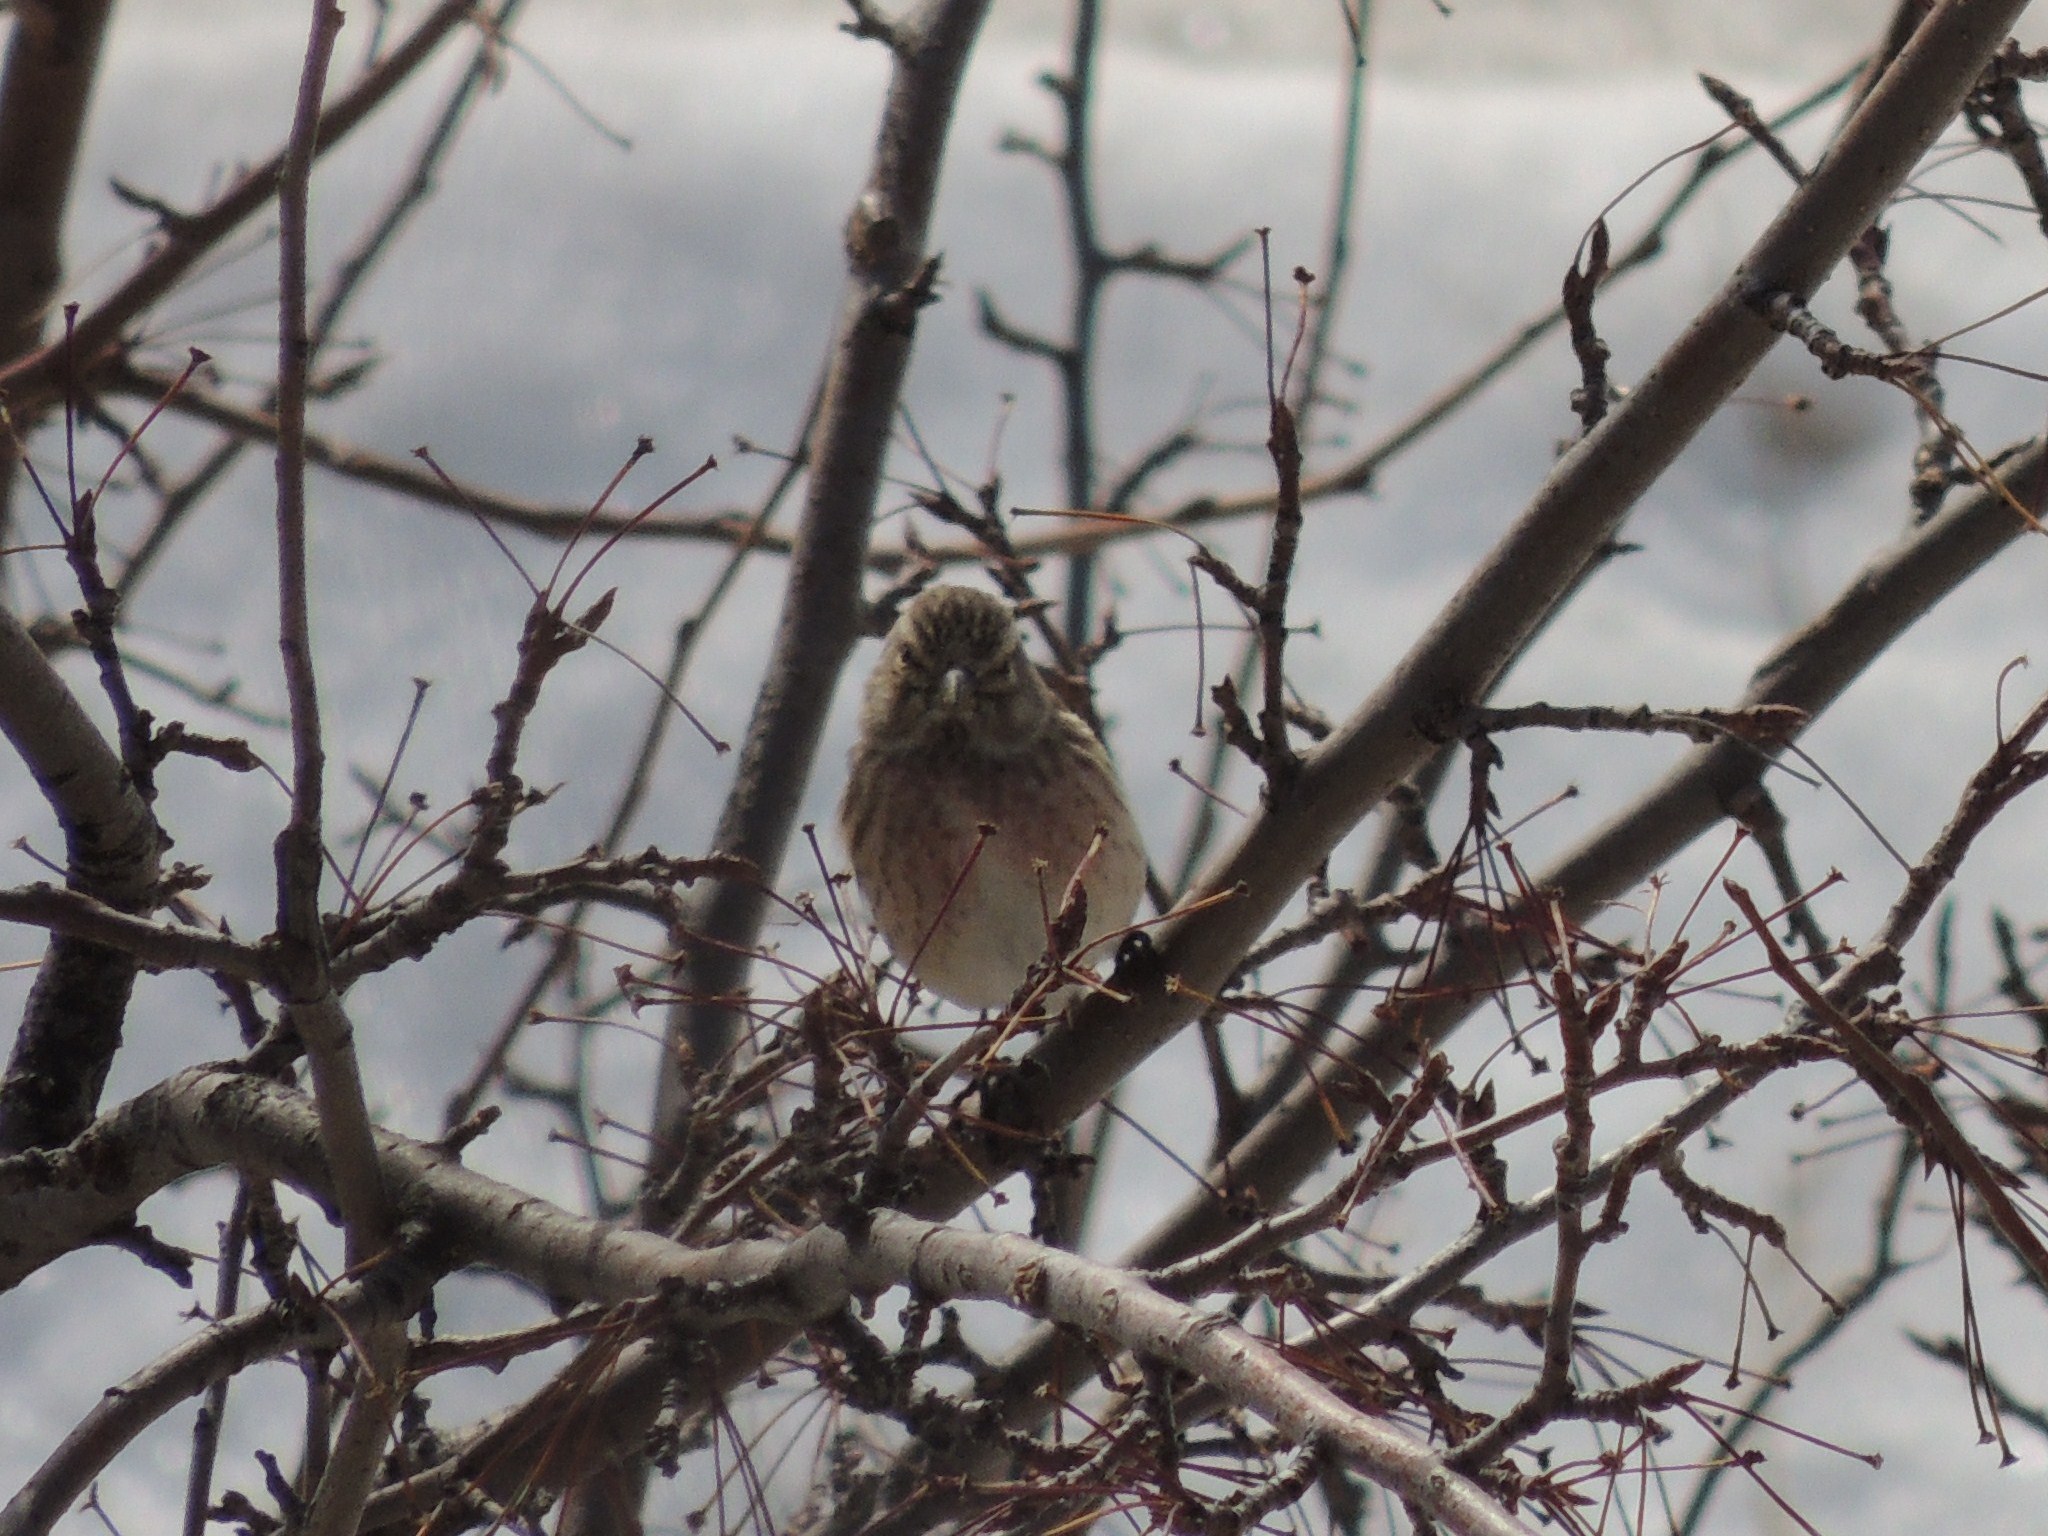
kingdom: Animalia
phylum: Chordata
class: Aves
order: Passeriformes
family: Fringillidae
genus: Linaria
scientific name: Linaria cannabina
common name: Common linnet
